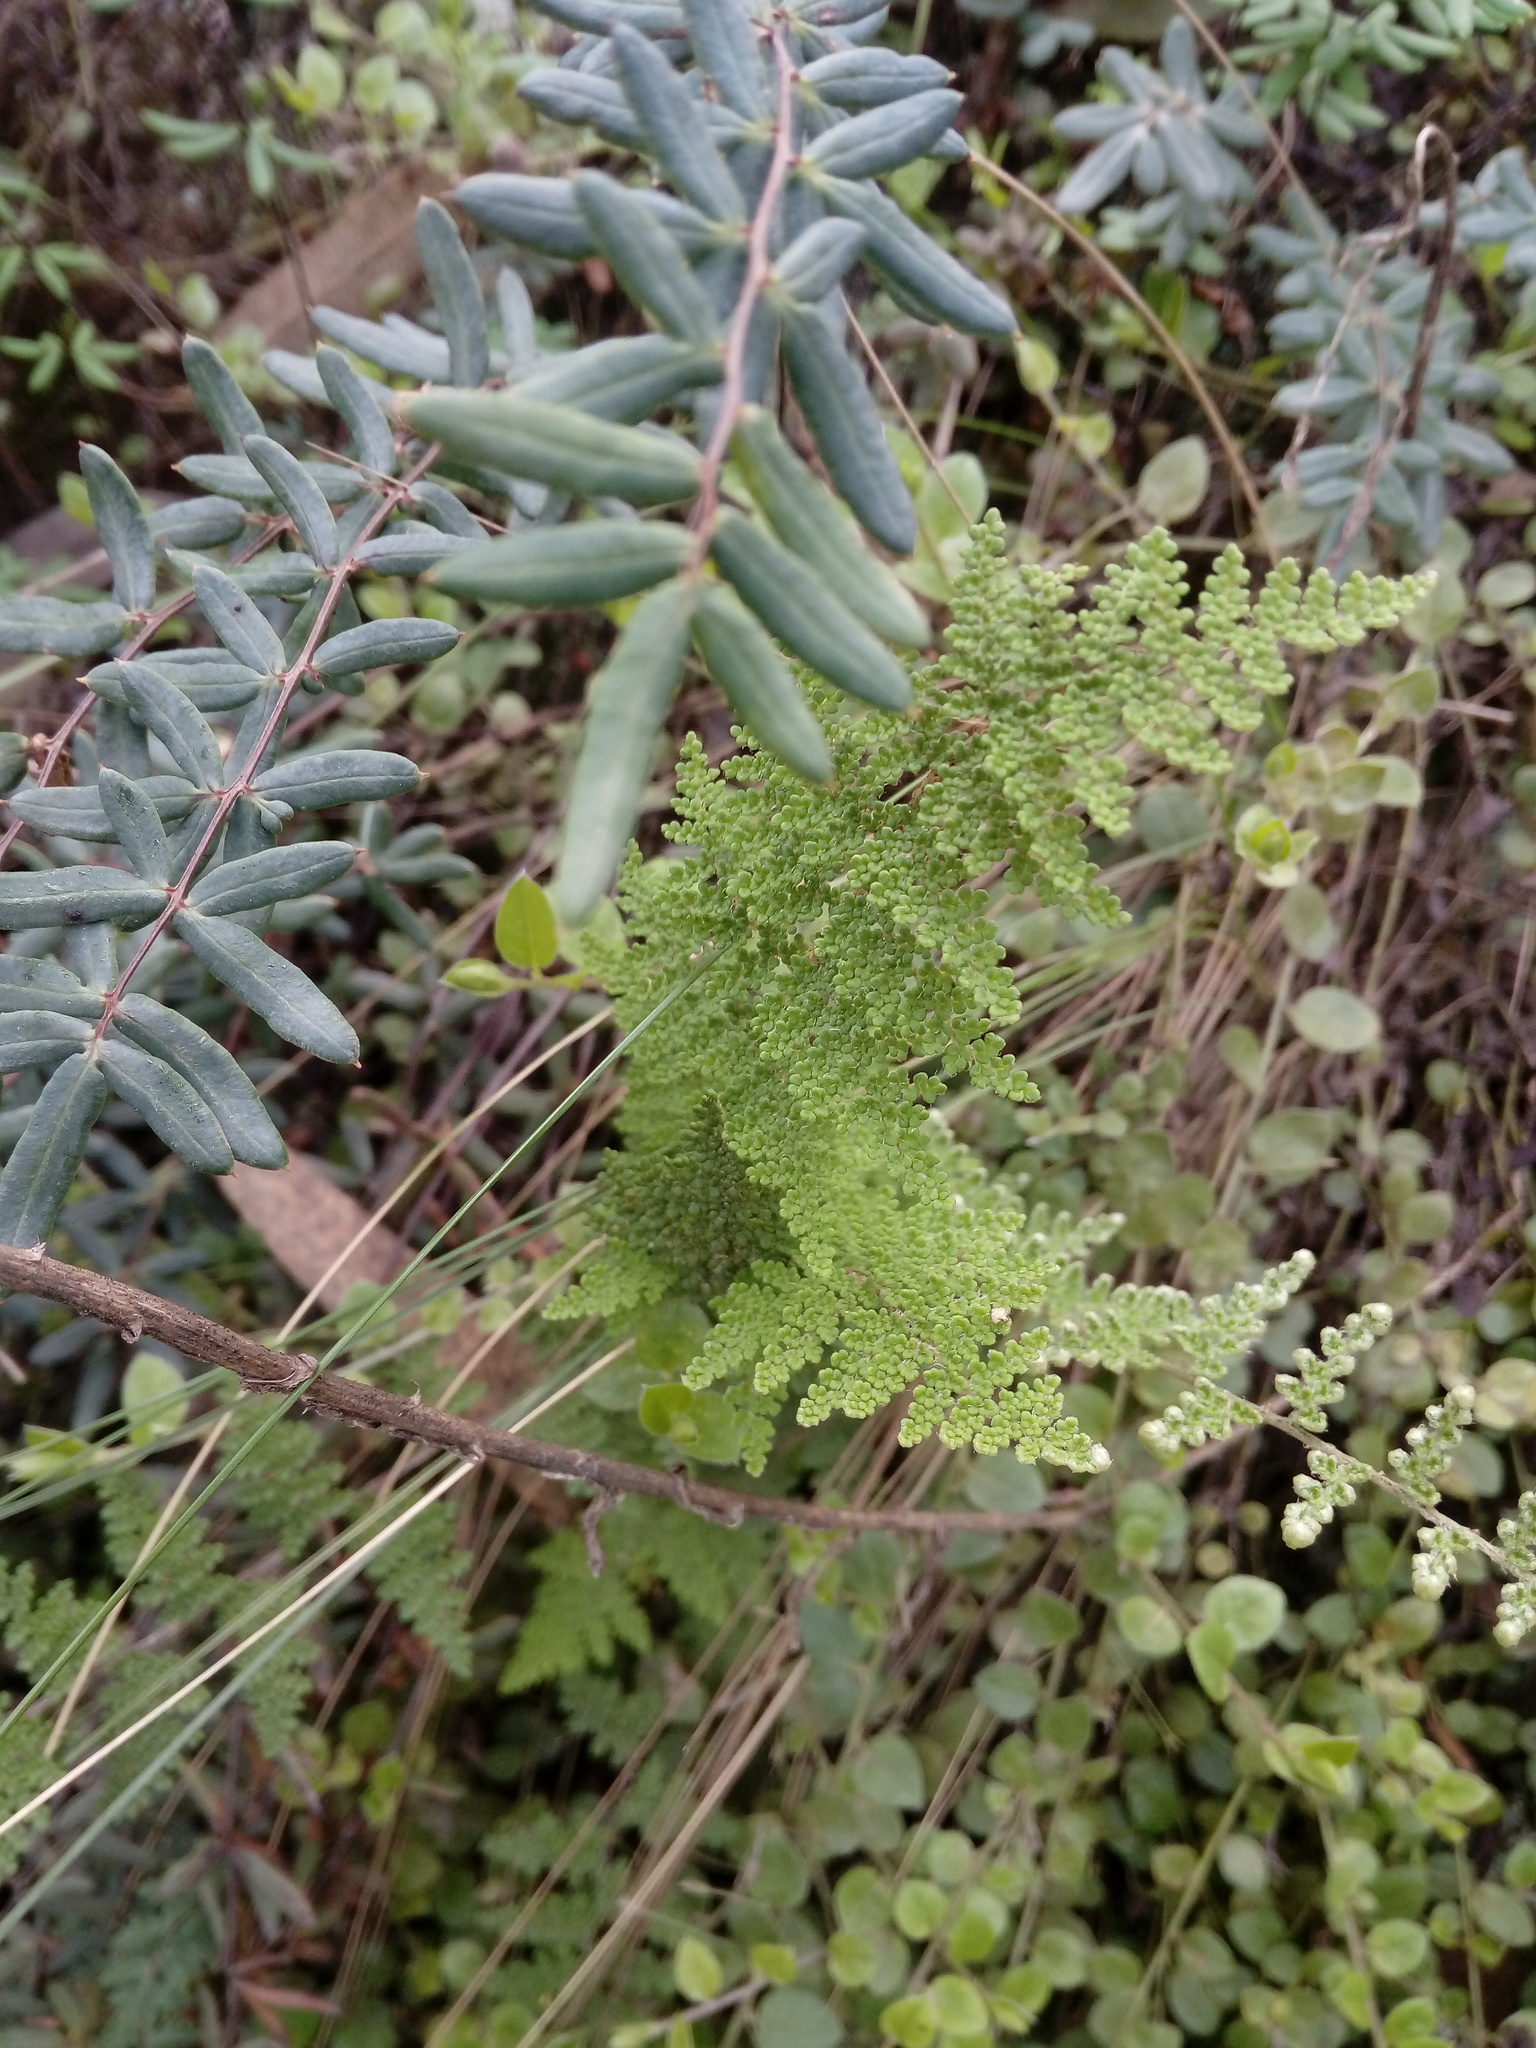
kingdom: Plantae
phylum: Tracheophyta
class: Polypodiopsida
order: Polypodiales
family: Pteridaceae
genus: Myriopteris
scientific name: Myriopteris myriophylla
